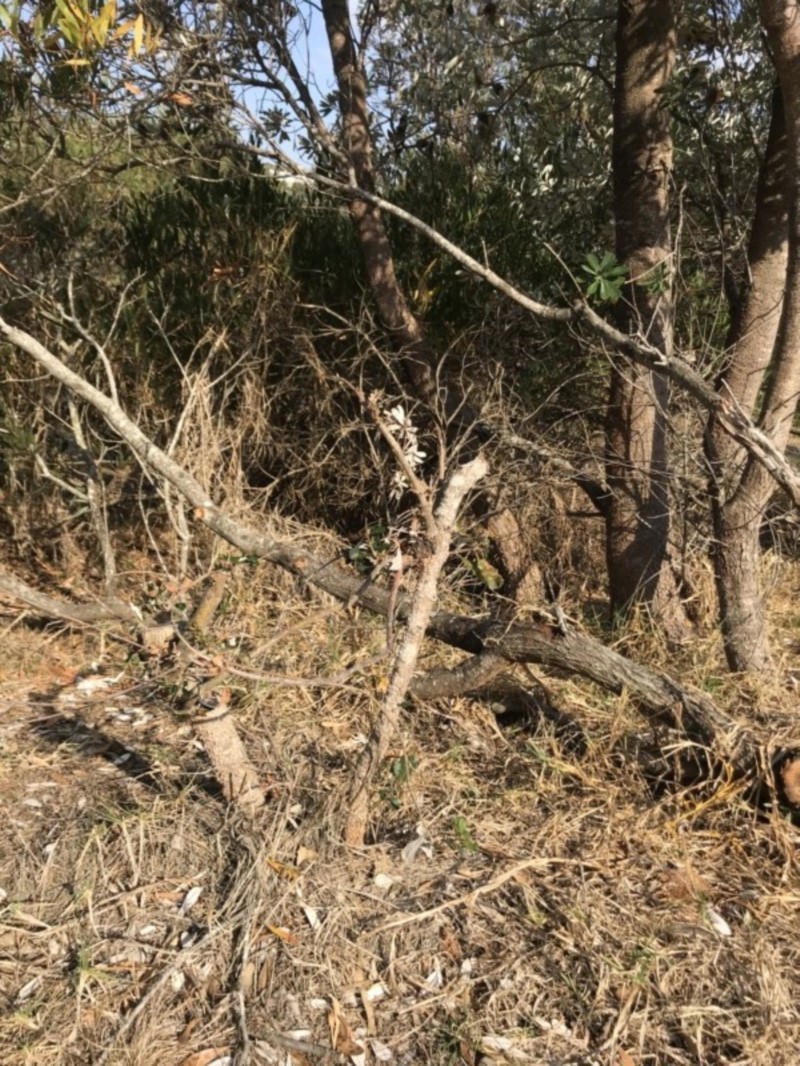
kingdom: Plantae
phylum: Tracheophyta
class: Magnoliopsida
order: Proteales
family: Proteaceae
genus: Banksia
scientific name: Banksia integrifolia
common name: White-honeysuckle
